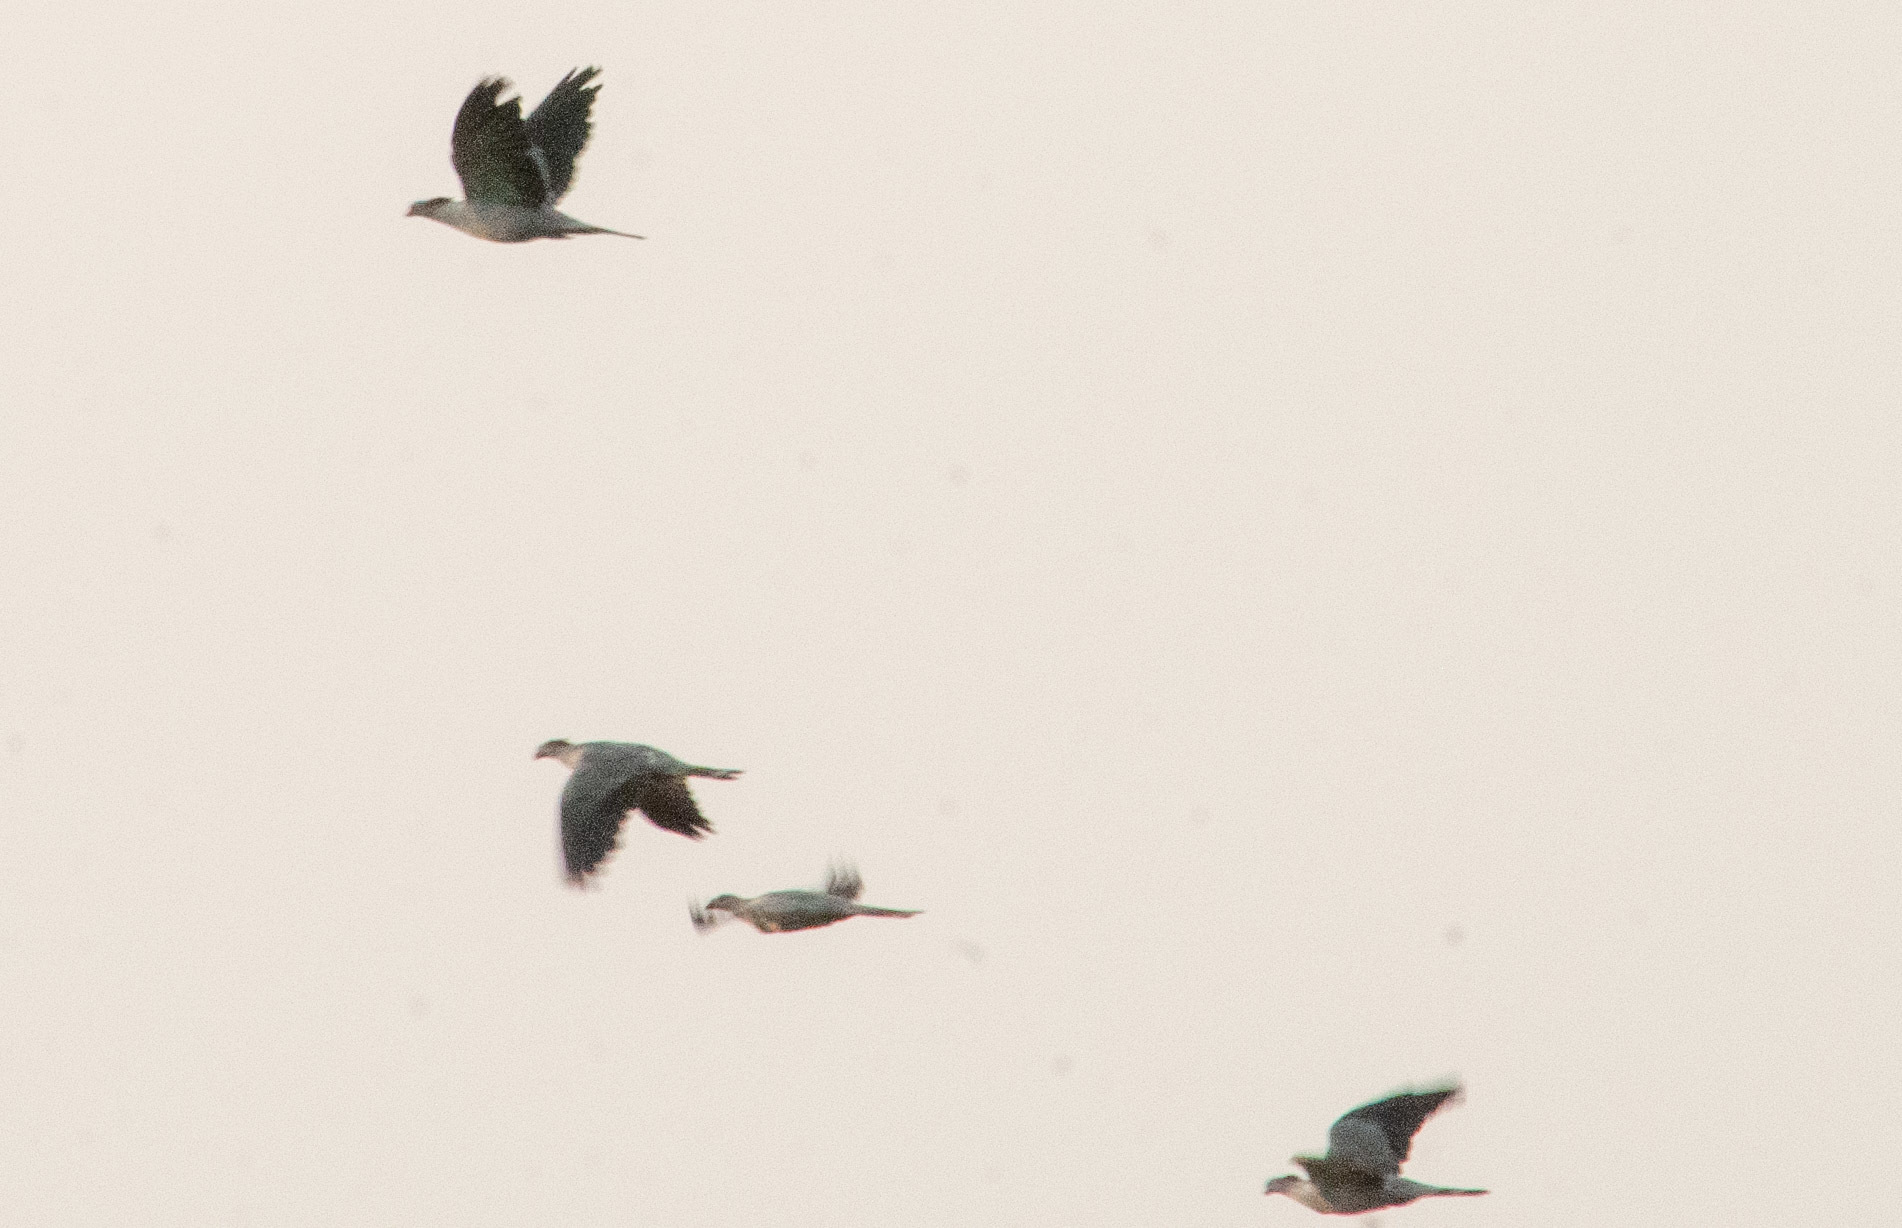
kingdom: Animalia
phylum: Chordata
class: Aves
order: Columbiformes
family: Columbidae
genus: Lopholaimus
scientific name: Lopholaimus antarcticus
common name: Topknot pigeon
